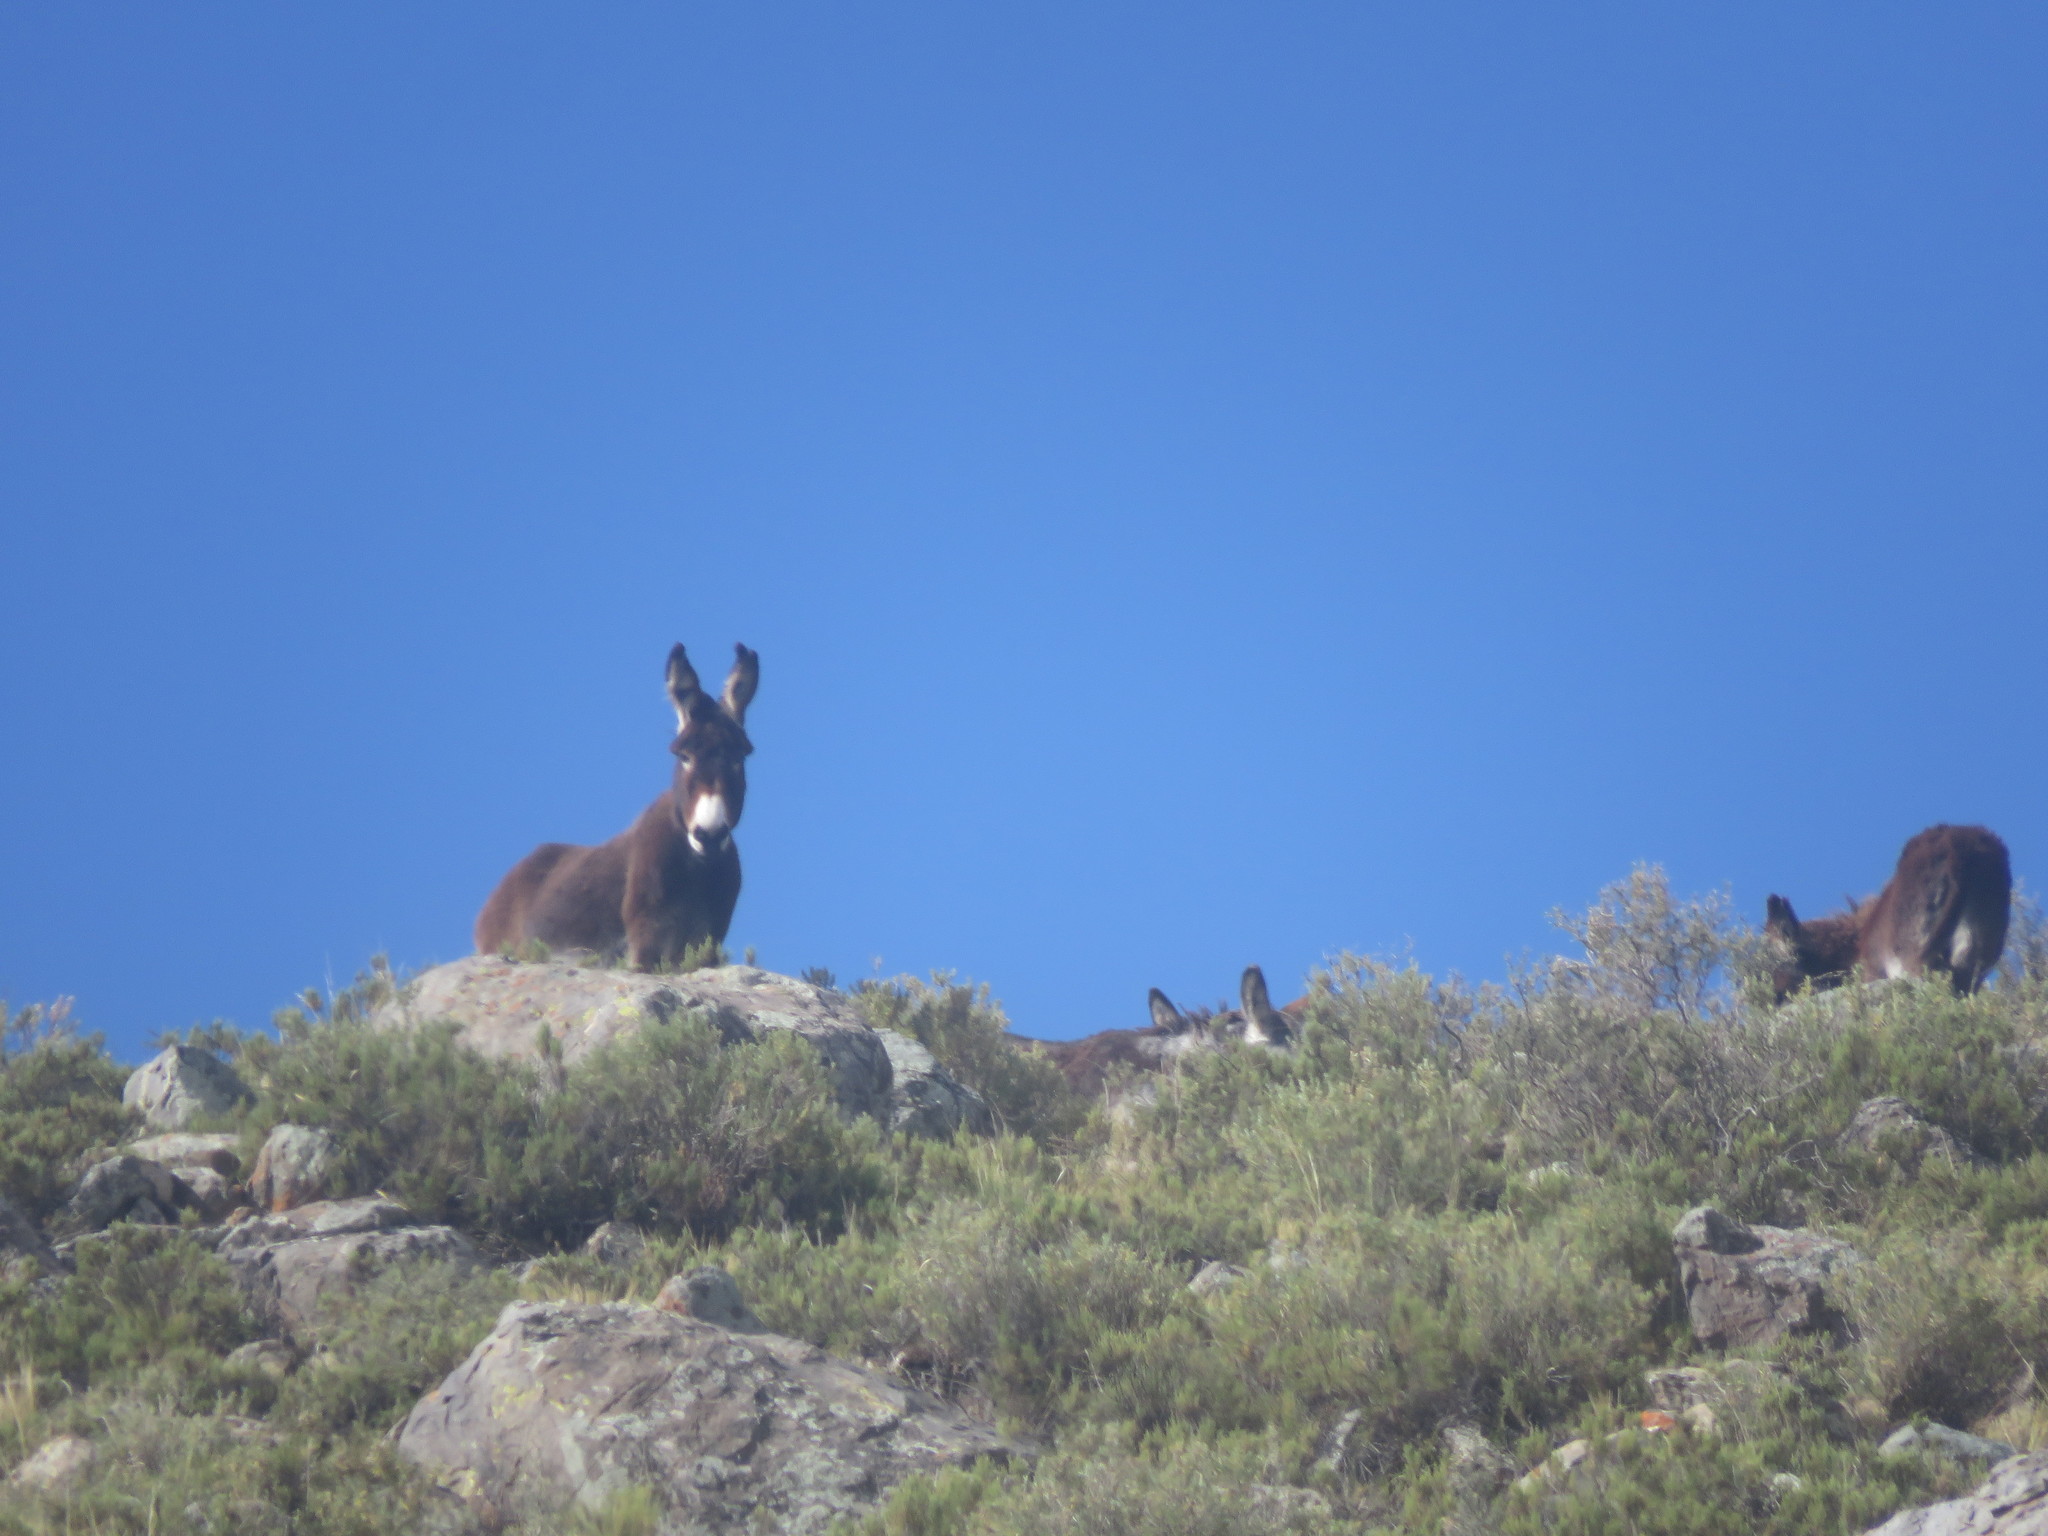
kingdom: Animalia
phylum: Chordata
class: Mammalia
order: Perissodactyla
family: Equidae
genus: Equus
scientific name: Equus asinus
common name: Ass
